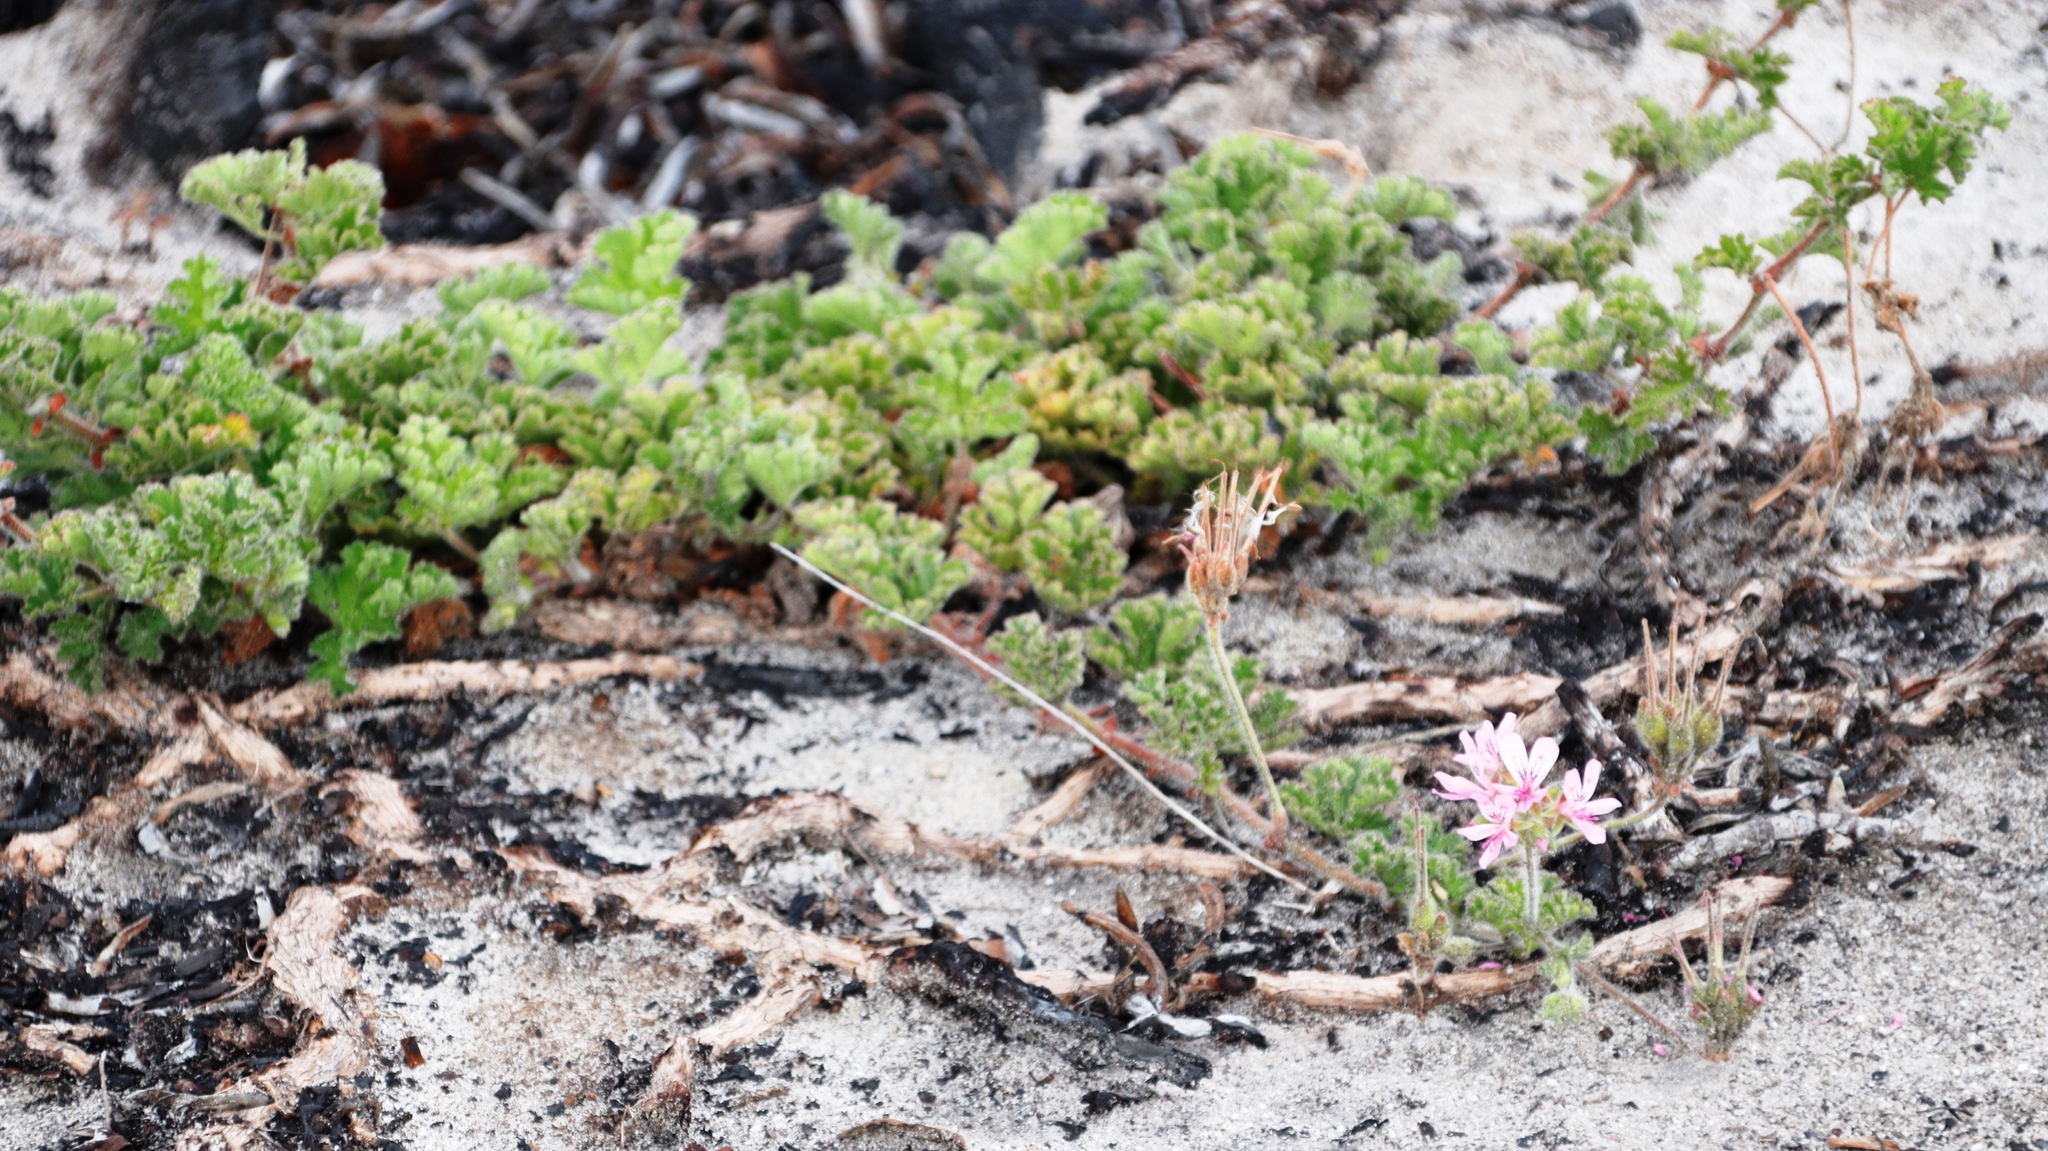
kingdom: Plantae
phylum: Tracheophyta
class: Magnoliopsida
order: Geraniales
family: Geraniaceae
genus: Pelargonium
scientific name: Pelargonium capitatum
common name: Rose scented geranium
